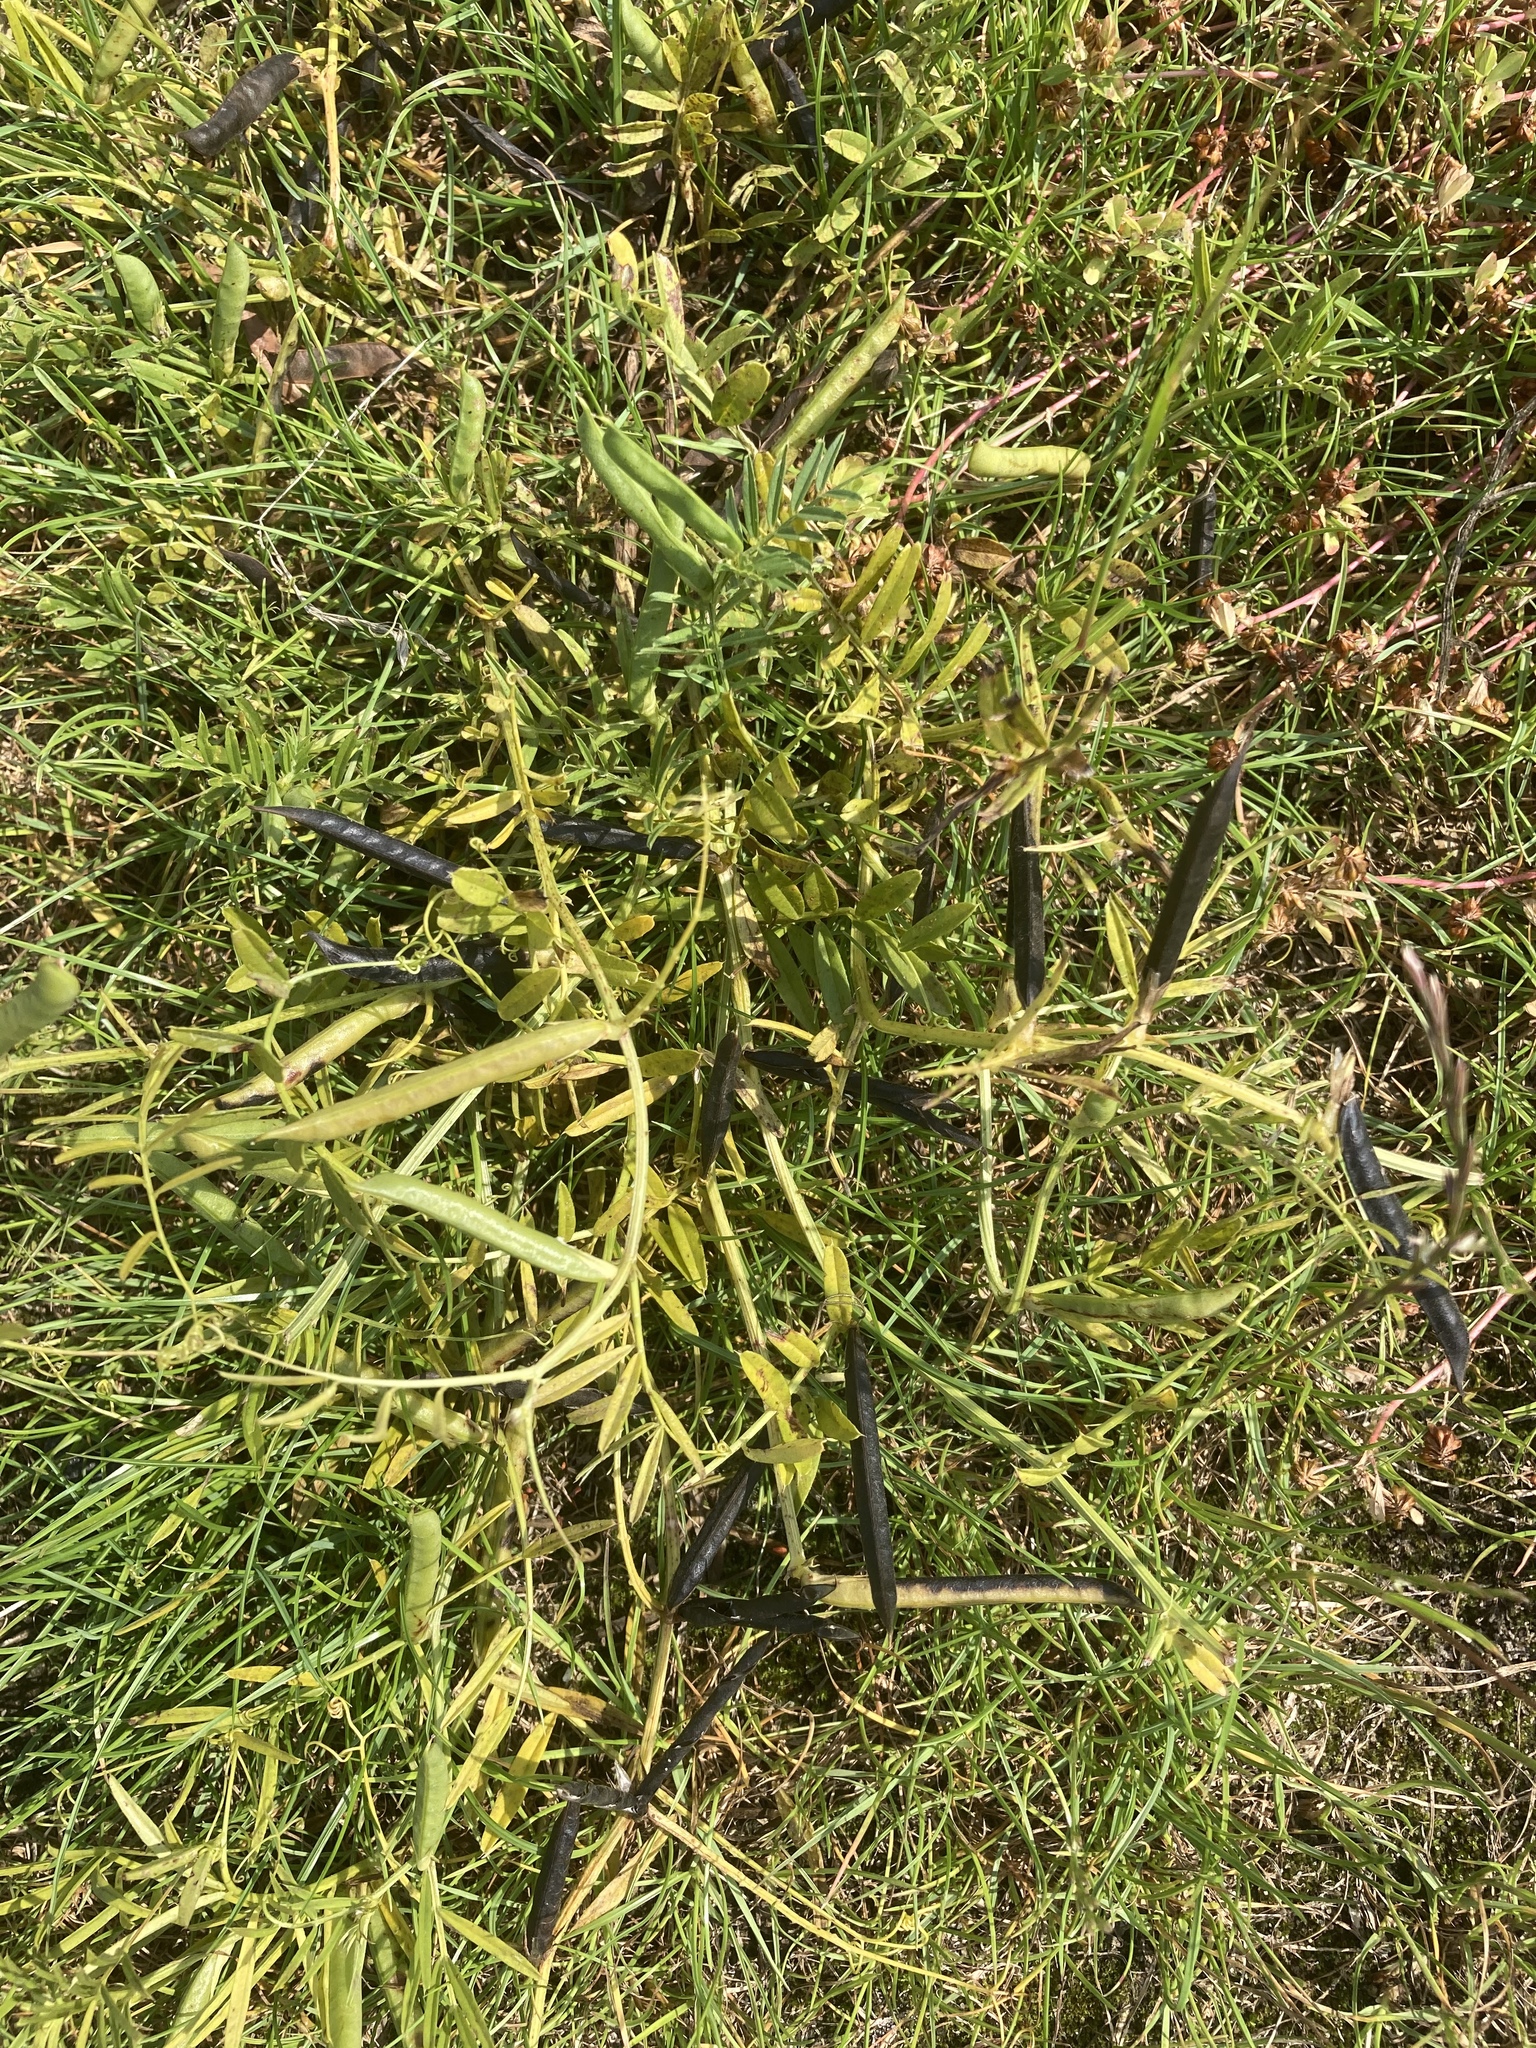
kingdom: Plantae
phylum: Tracheophyta
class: Magnoliopsida
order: Fabales
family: Fabaceae
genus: Vicia
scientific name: Vicia sativa
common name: Garden vetch
